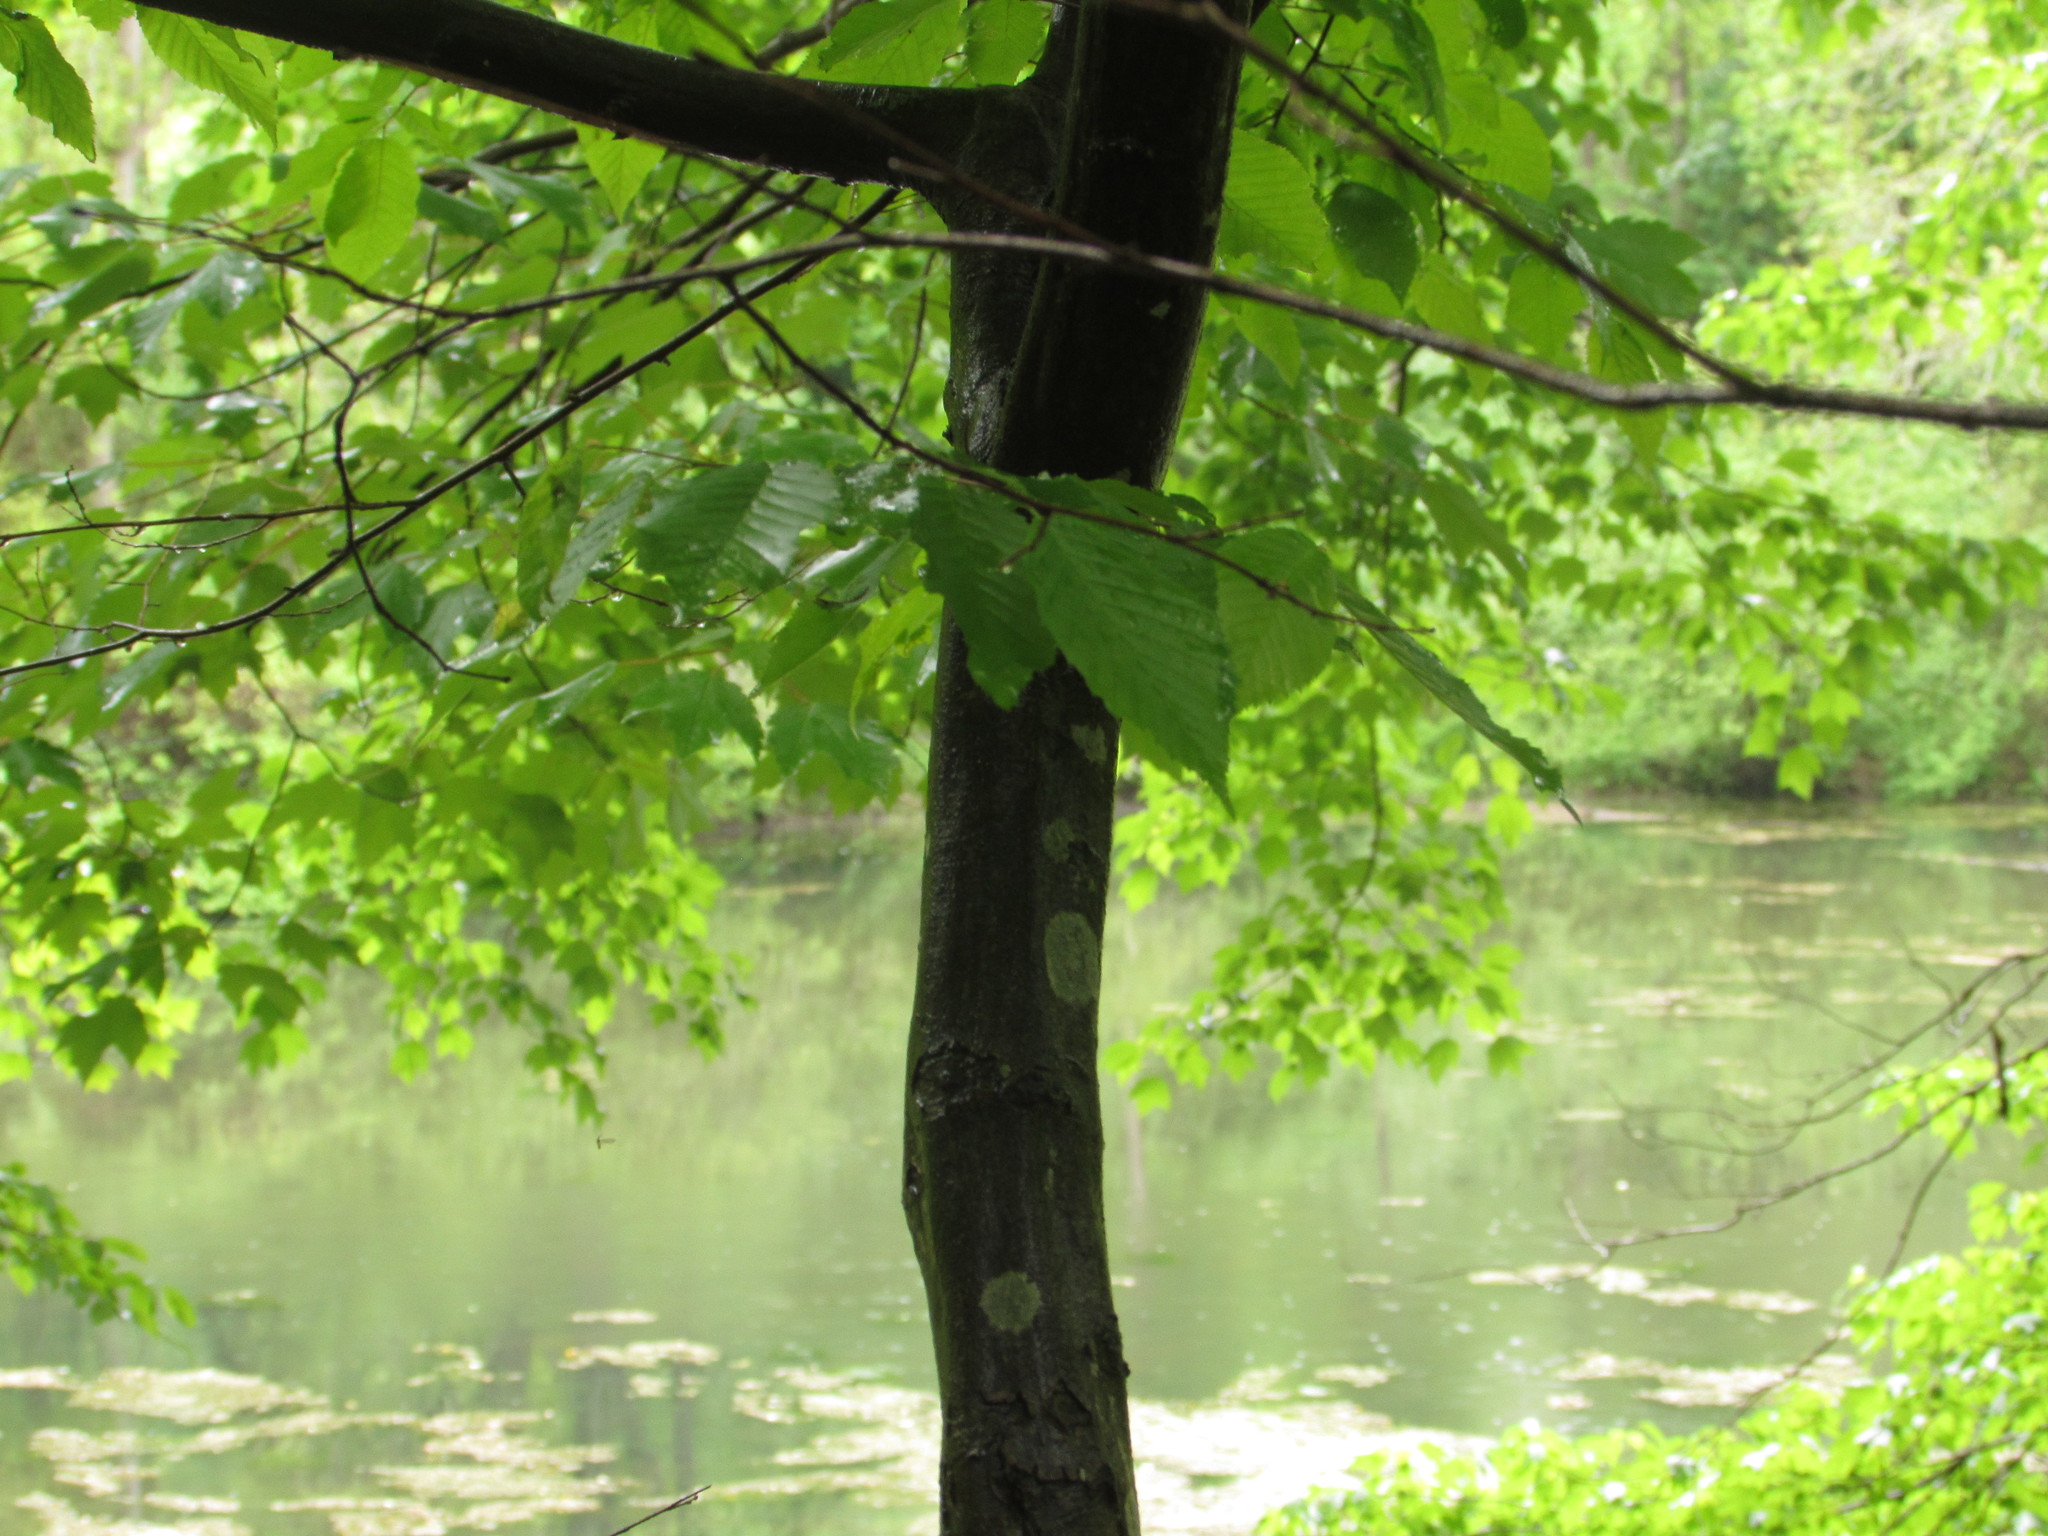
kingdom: Plantae
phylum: Tracheophyta
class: Magnoliopsida
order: Fagales
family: Betulaceae
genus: Carpinus
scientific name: Carpinus caroliniana
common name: American hornbeam
